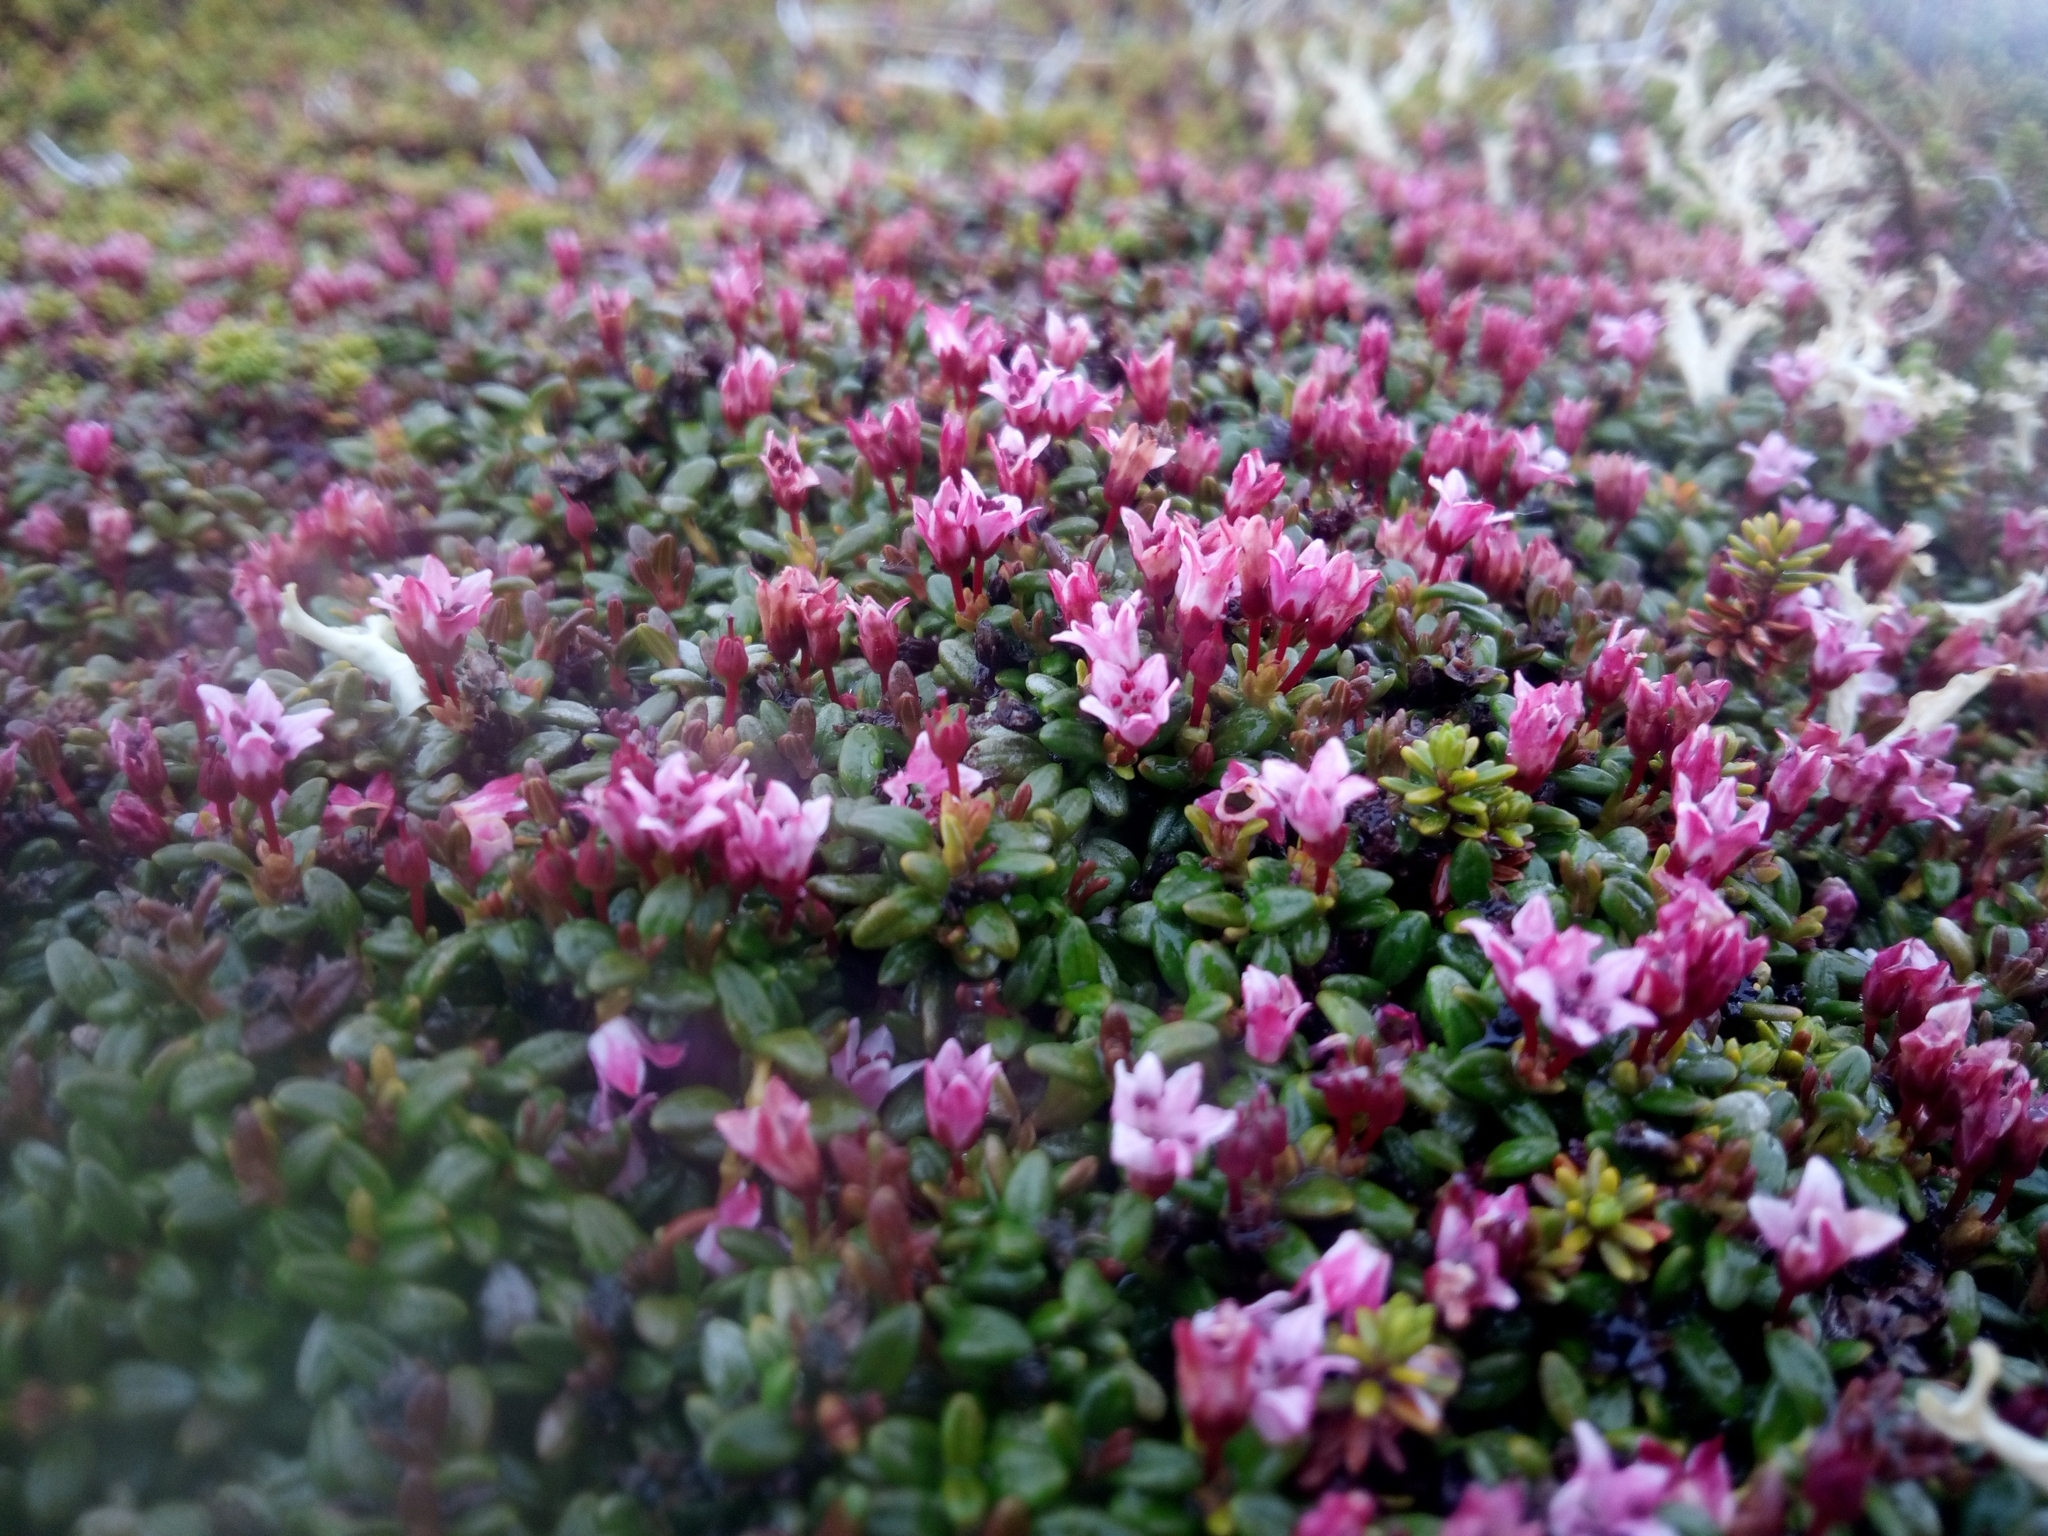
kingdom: Plantae
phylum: Tracheophyta
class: Magnoliopsida
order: Caryophyllales
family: Caryophyllaceae
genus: Silene
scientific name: Silene acaulis
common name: Moss campion
